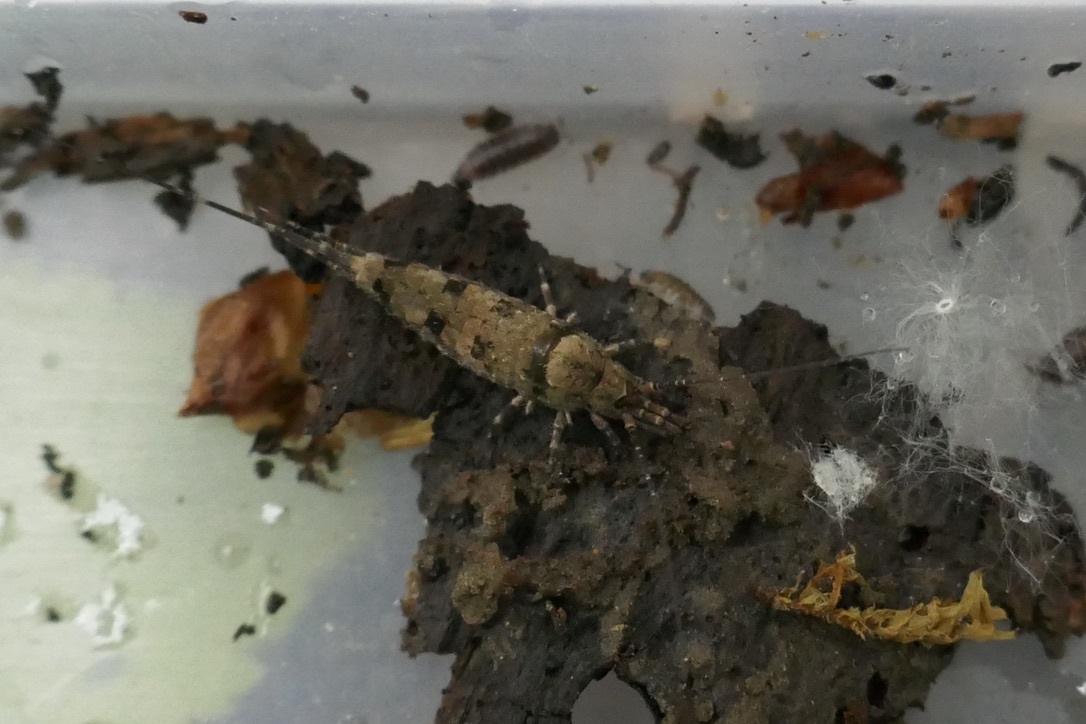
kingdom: Animalia
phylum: Arthropoda
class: Insecta
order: Archaeognatha
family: Machilidae
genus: Trigoniophthalmus
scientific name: Trigoniophthalmus alternatus
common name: Jumping bristletail
